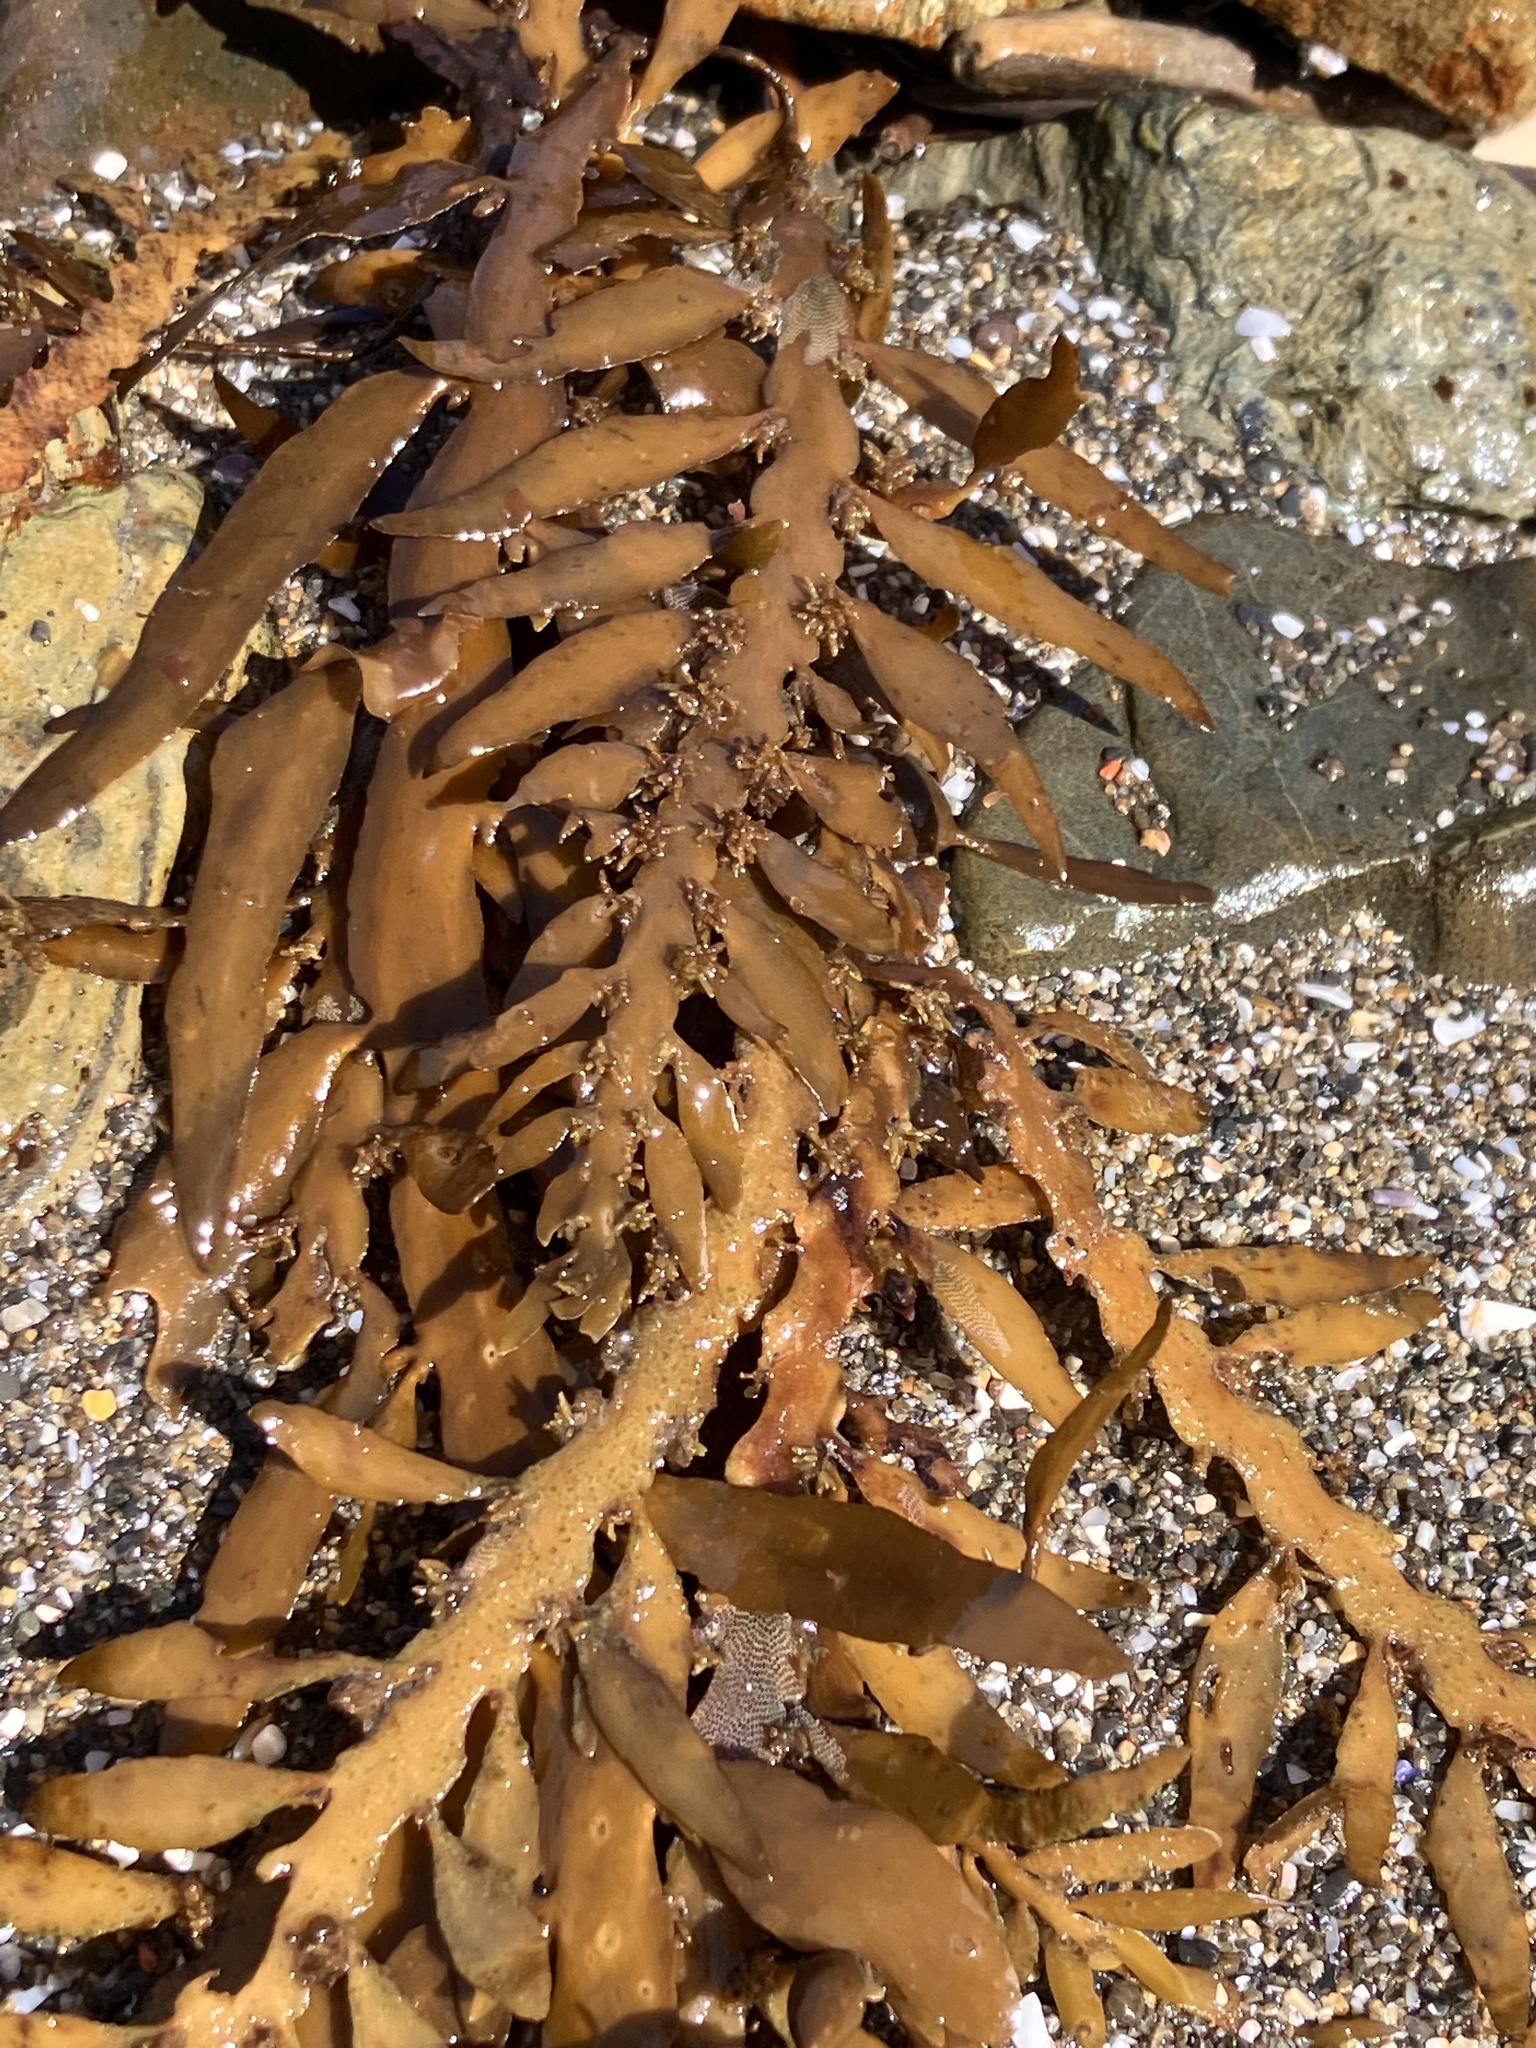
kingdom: Chromista
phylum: Ochrophyta
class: Phaeophyceae
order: Fucales
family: Sargassaceae
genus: Carpophyllum
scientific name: Carpophyllum maschalocarpum
